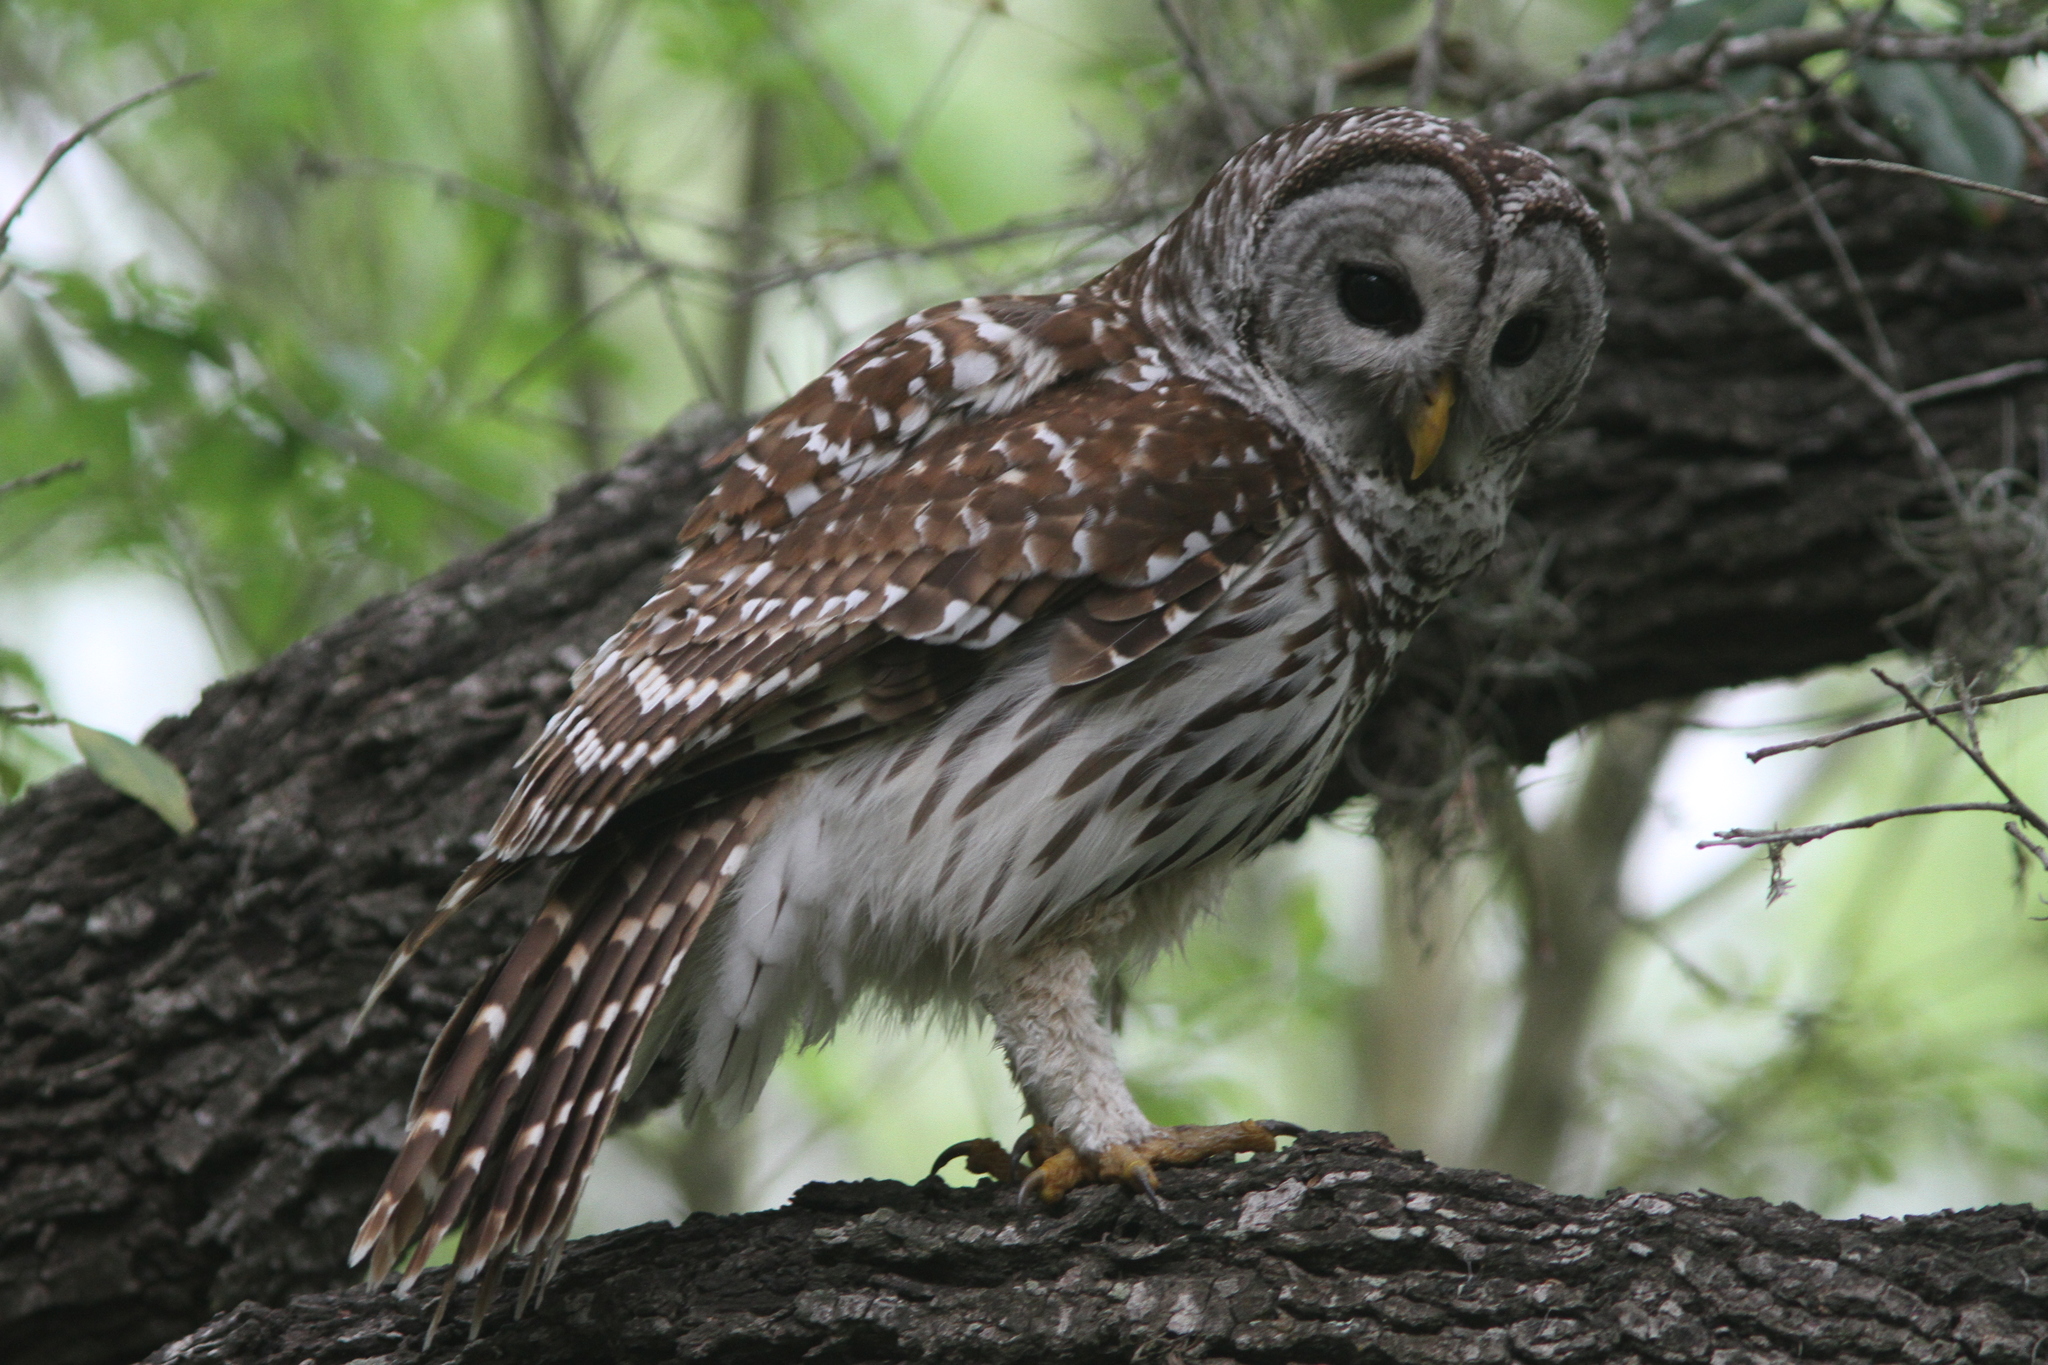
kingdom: Animalia
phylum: Chordata
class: Aves
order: Strigiformes
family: Strigidae
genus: Strix
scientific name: Strix varia
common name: Barred owl
